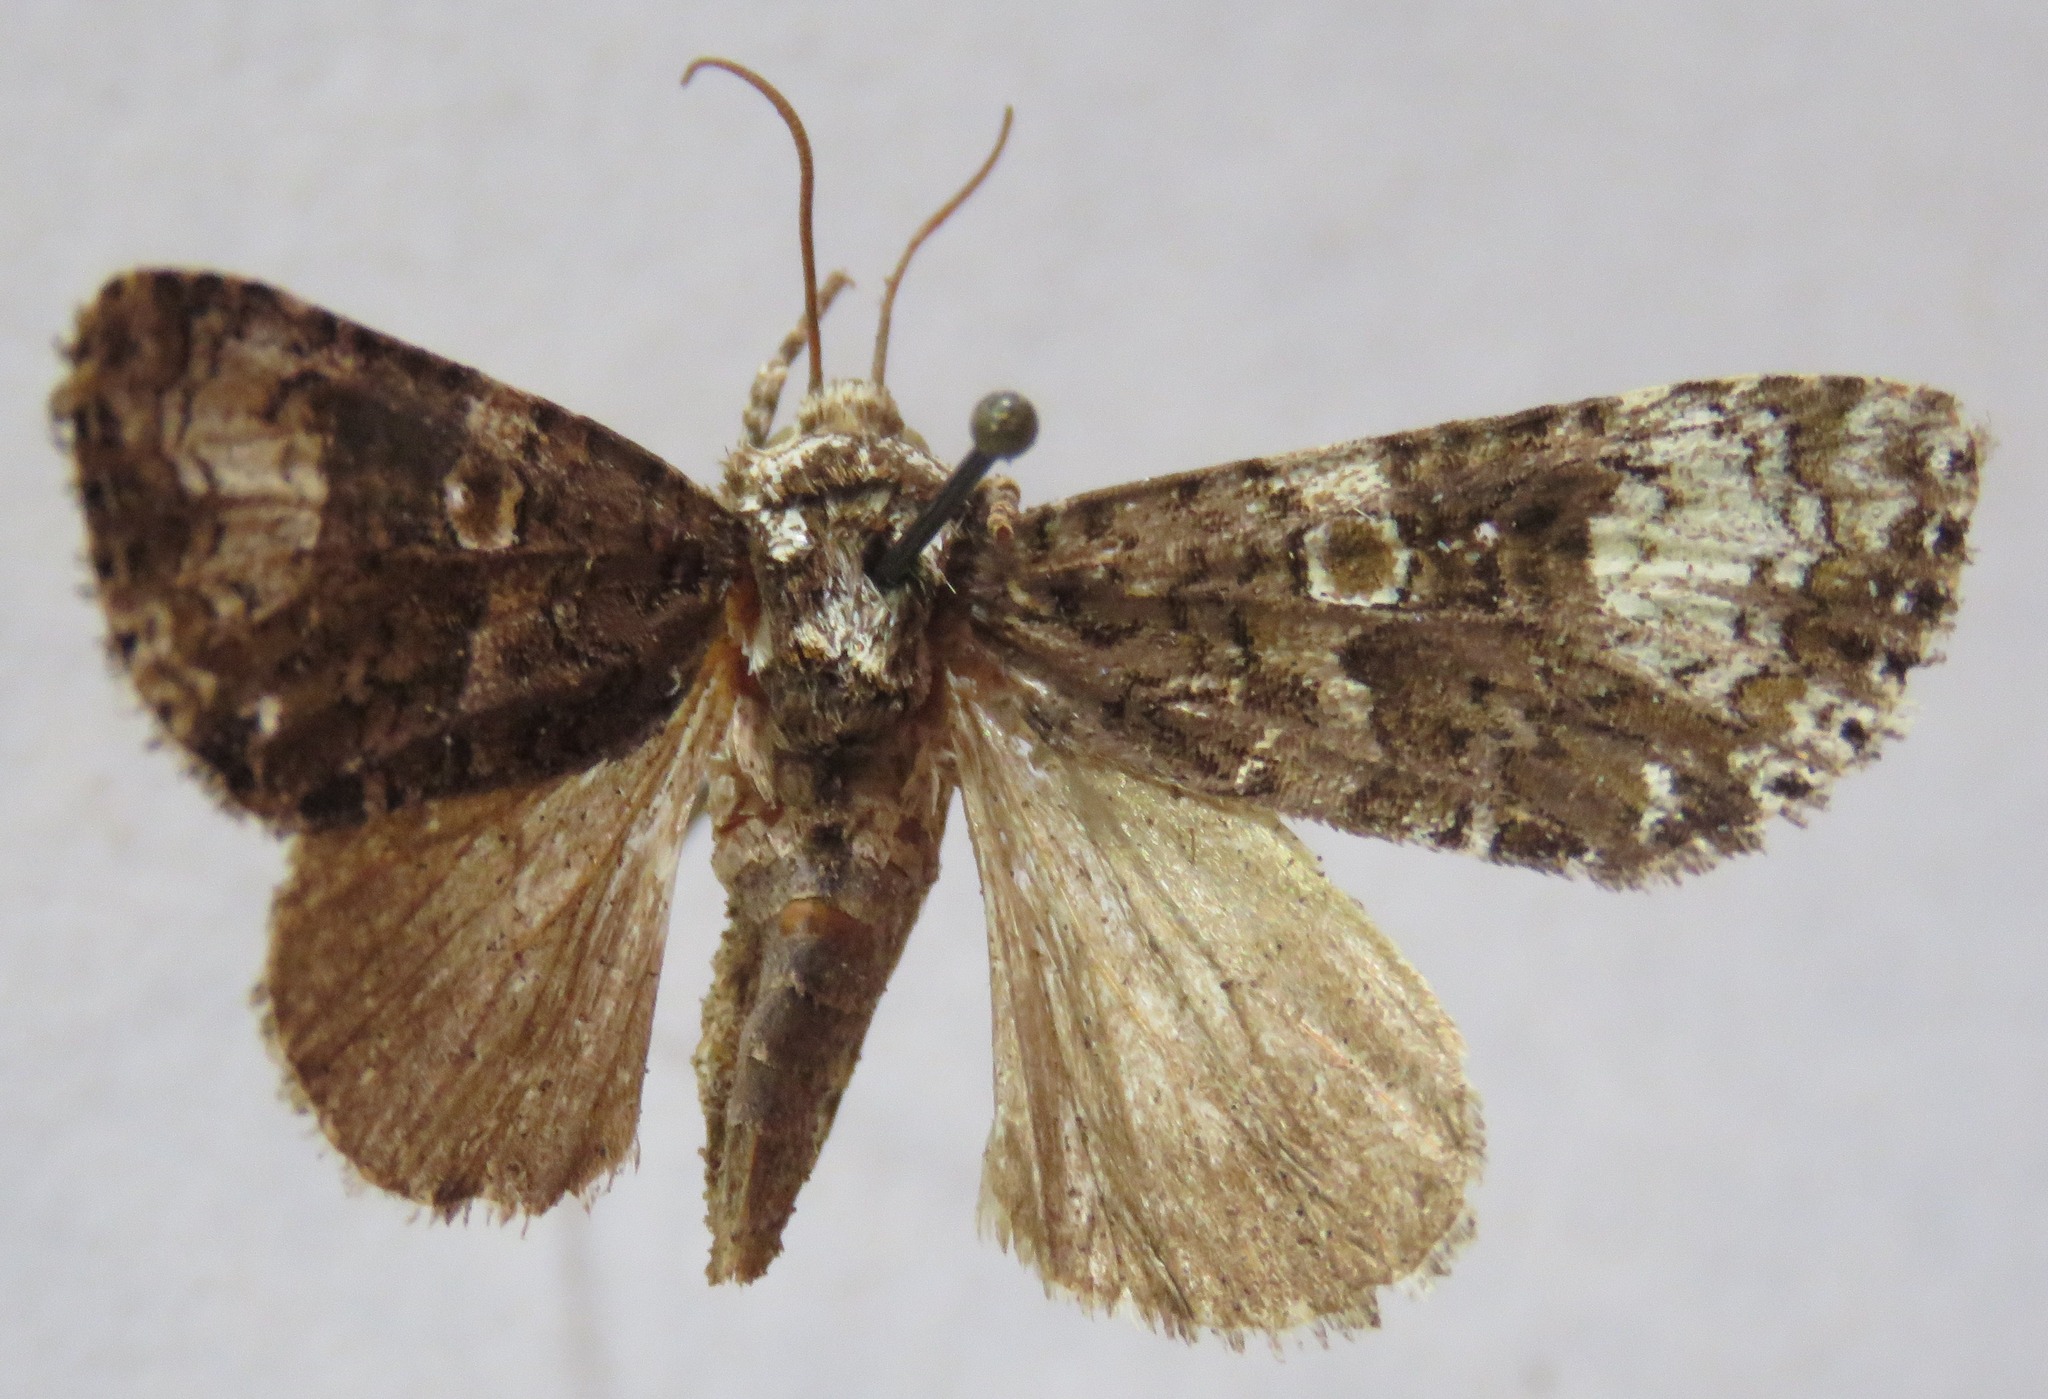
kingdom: Animalia
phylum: Arthropoda
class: Insecta
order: Lepidoptera
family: Noctuidae
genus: Craniophora
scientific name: Craniophora ligustri
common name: Coronet
